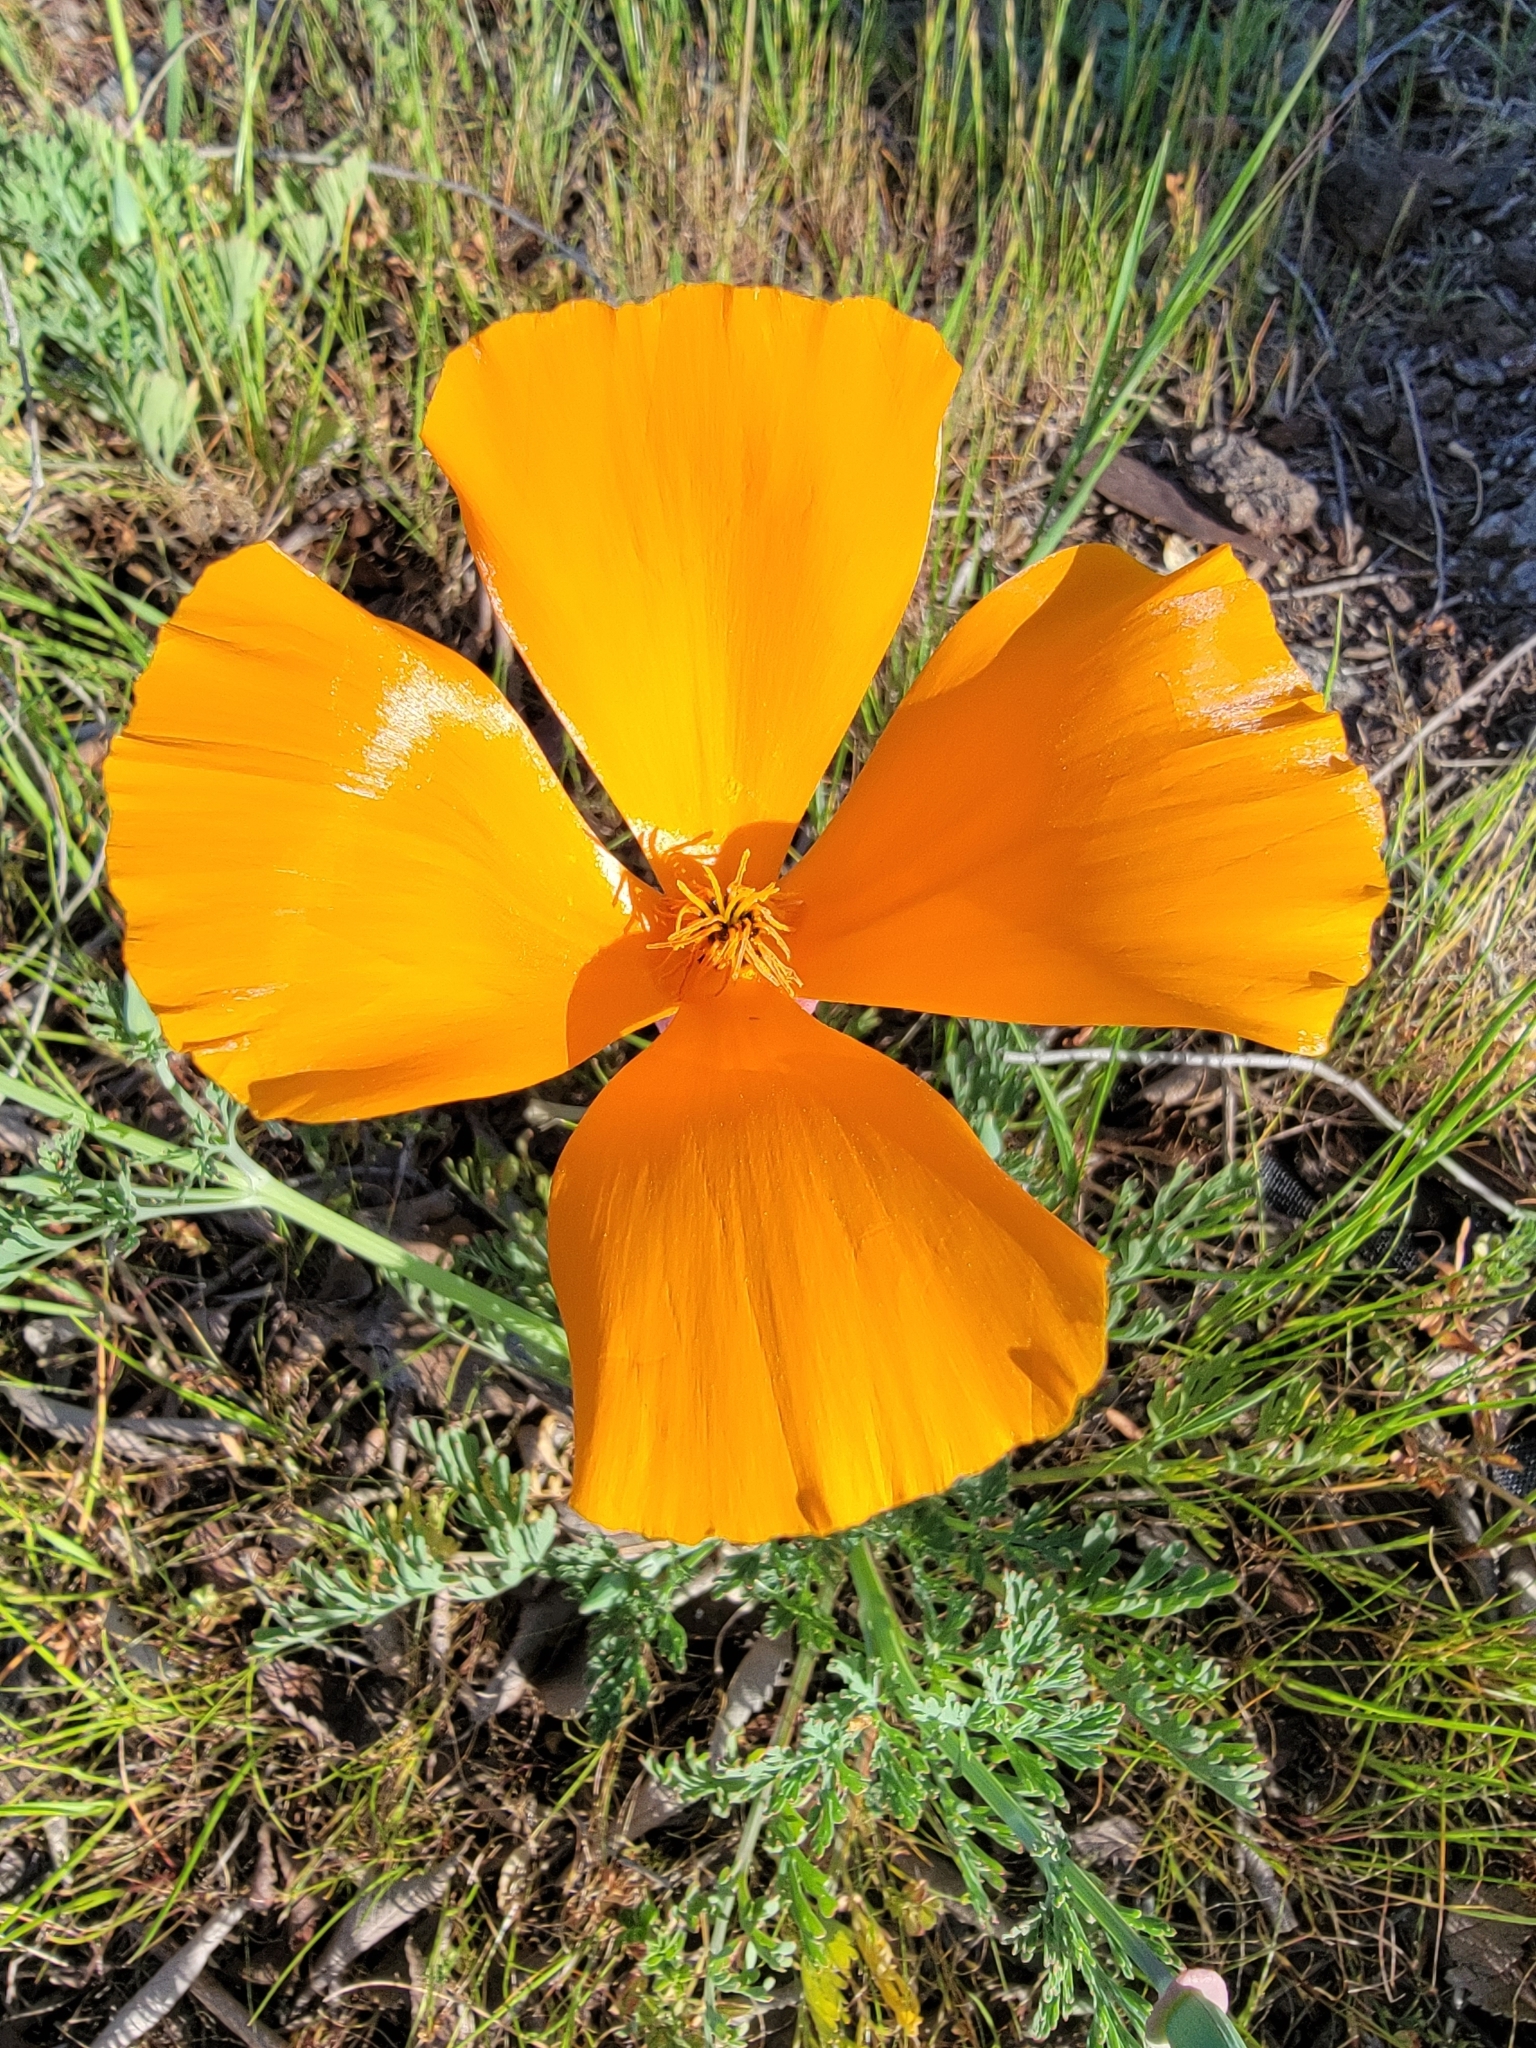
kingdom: Plantae
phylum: Tracheophyta
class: Magnoliopsida
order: Ranunculales
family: Papaveraceae
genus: Eschscholzia
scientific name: Eschscholzia californica
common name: California poppy
